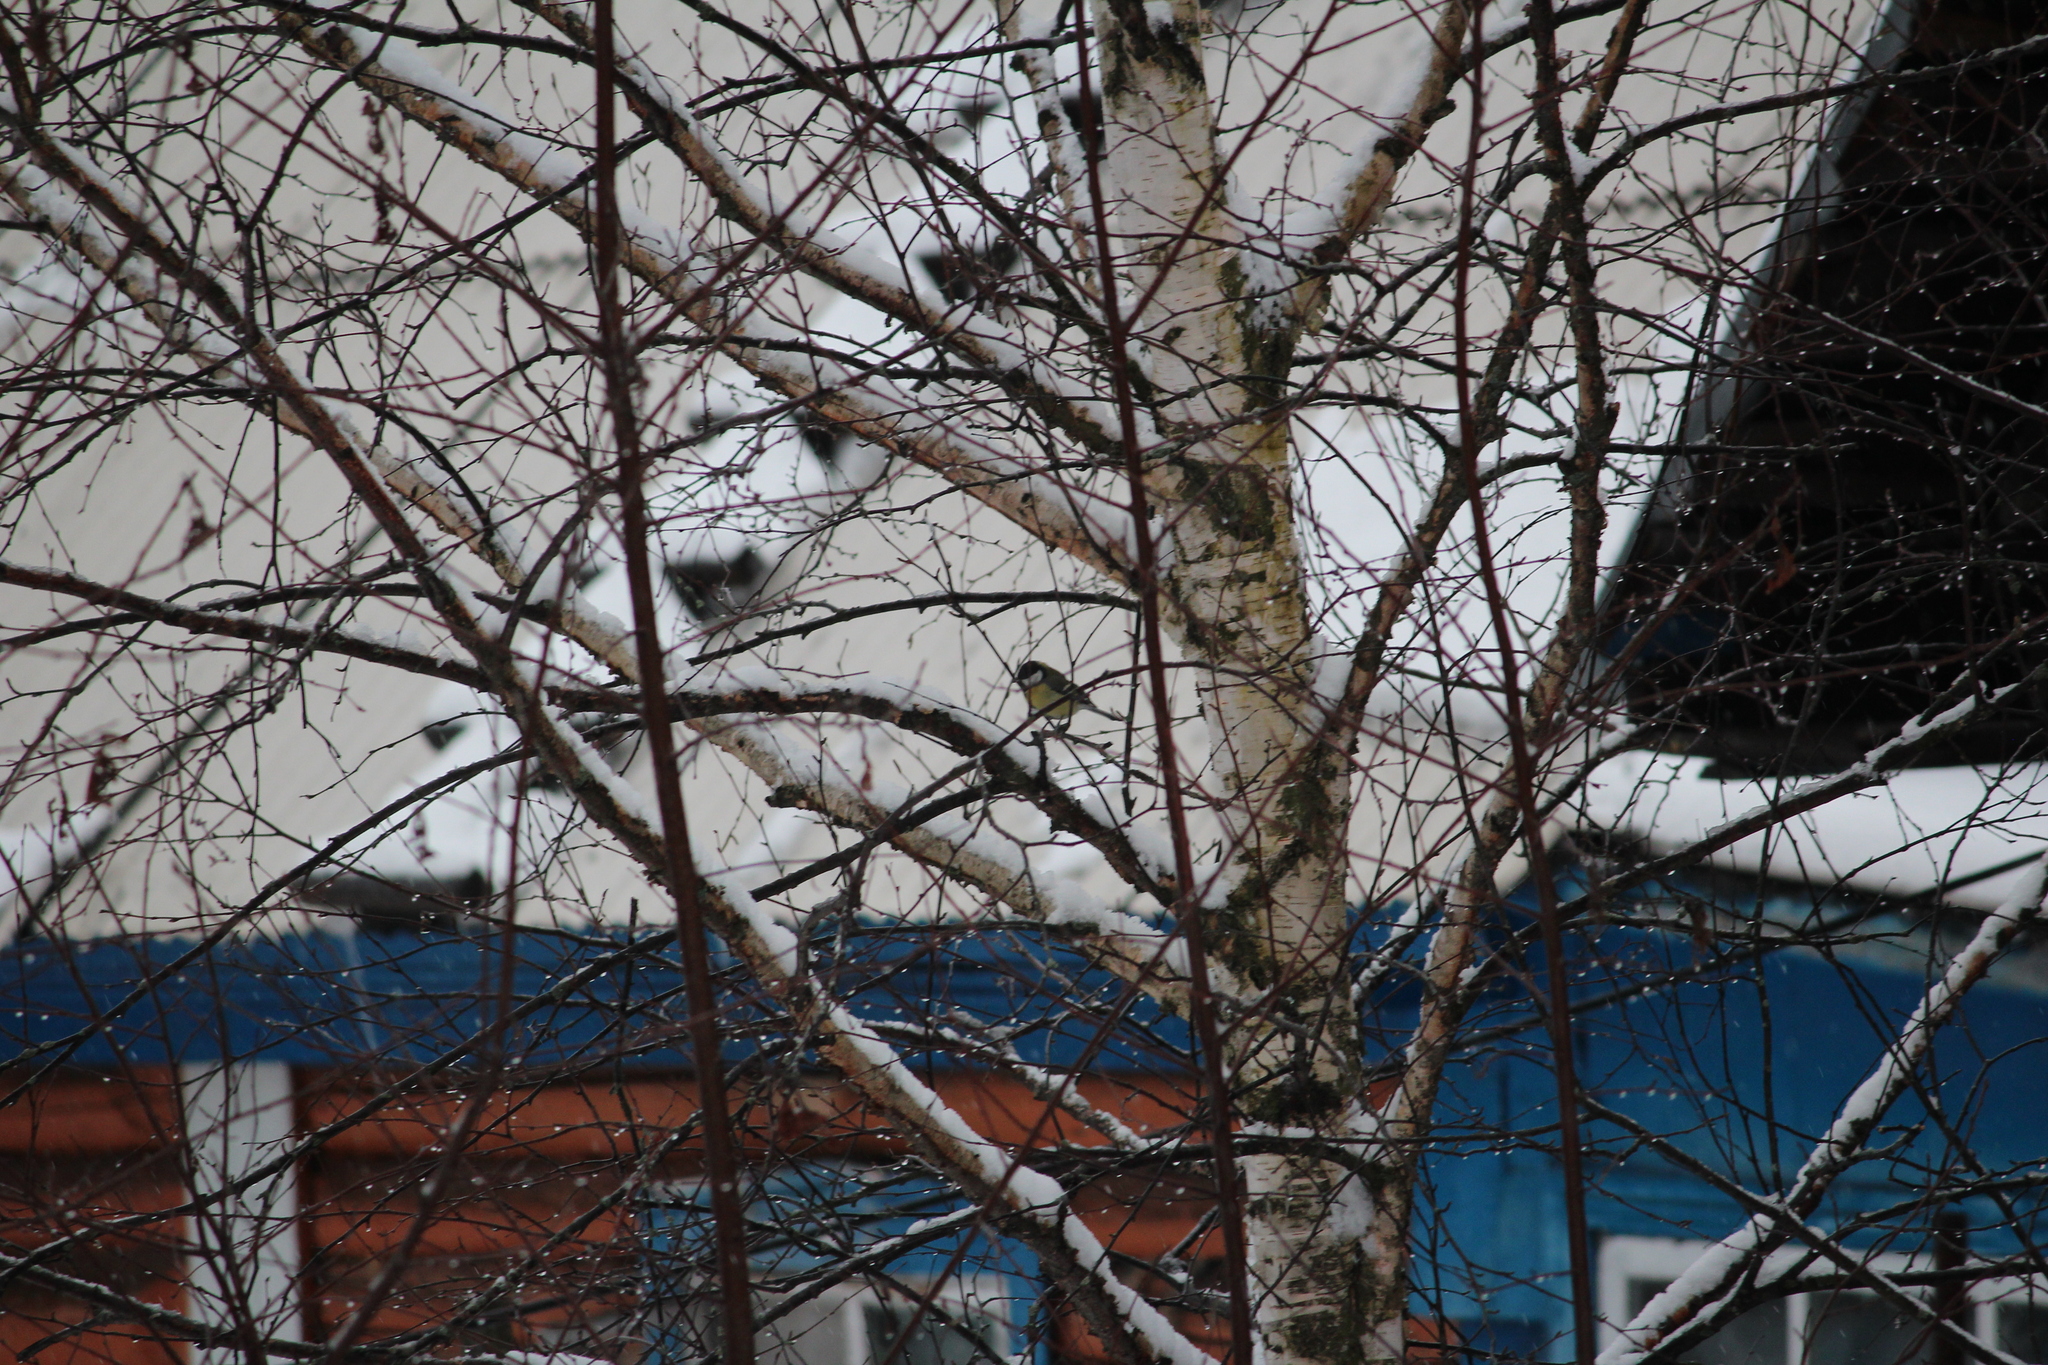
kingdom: Animalia
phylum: Chordata
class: Aves
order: Passeriformes
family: Paridae
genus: Parus
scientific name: Parus major
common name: Great tit
